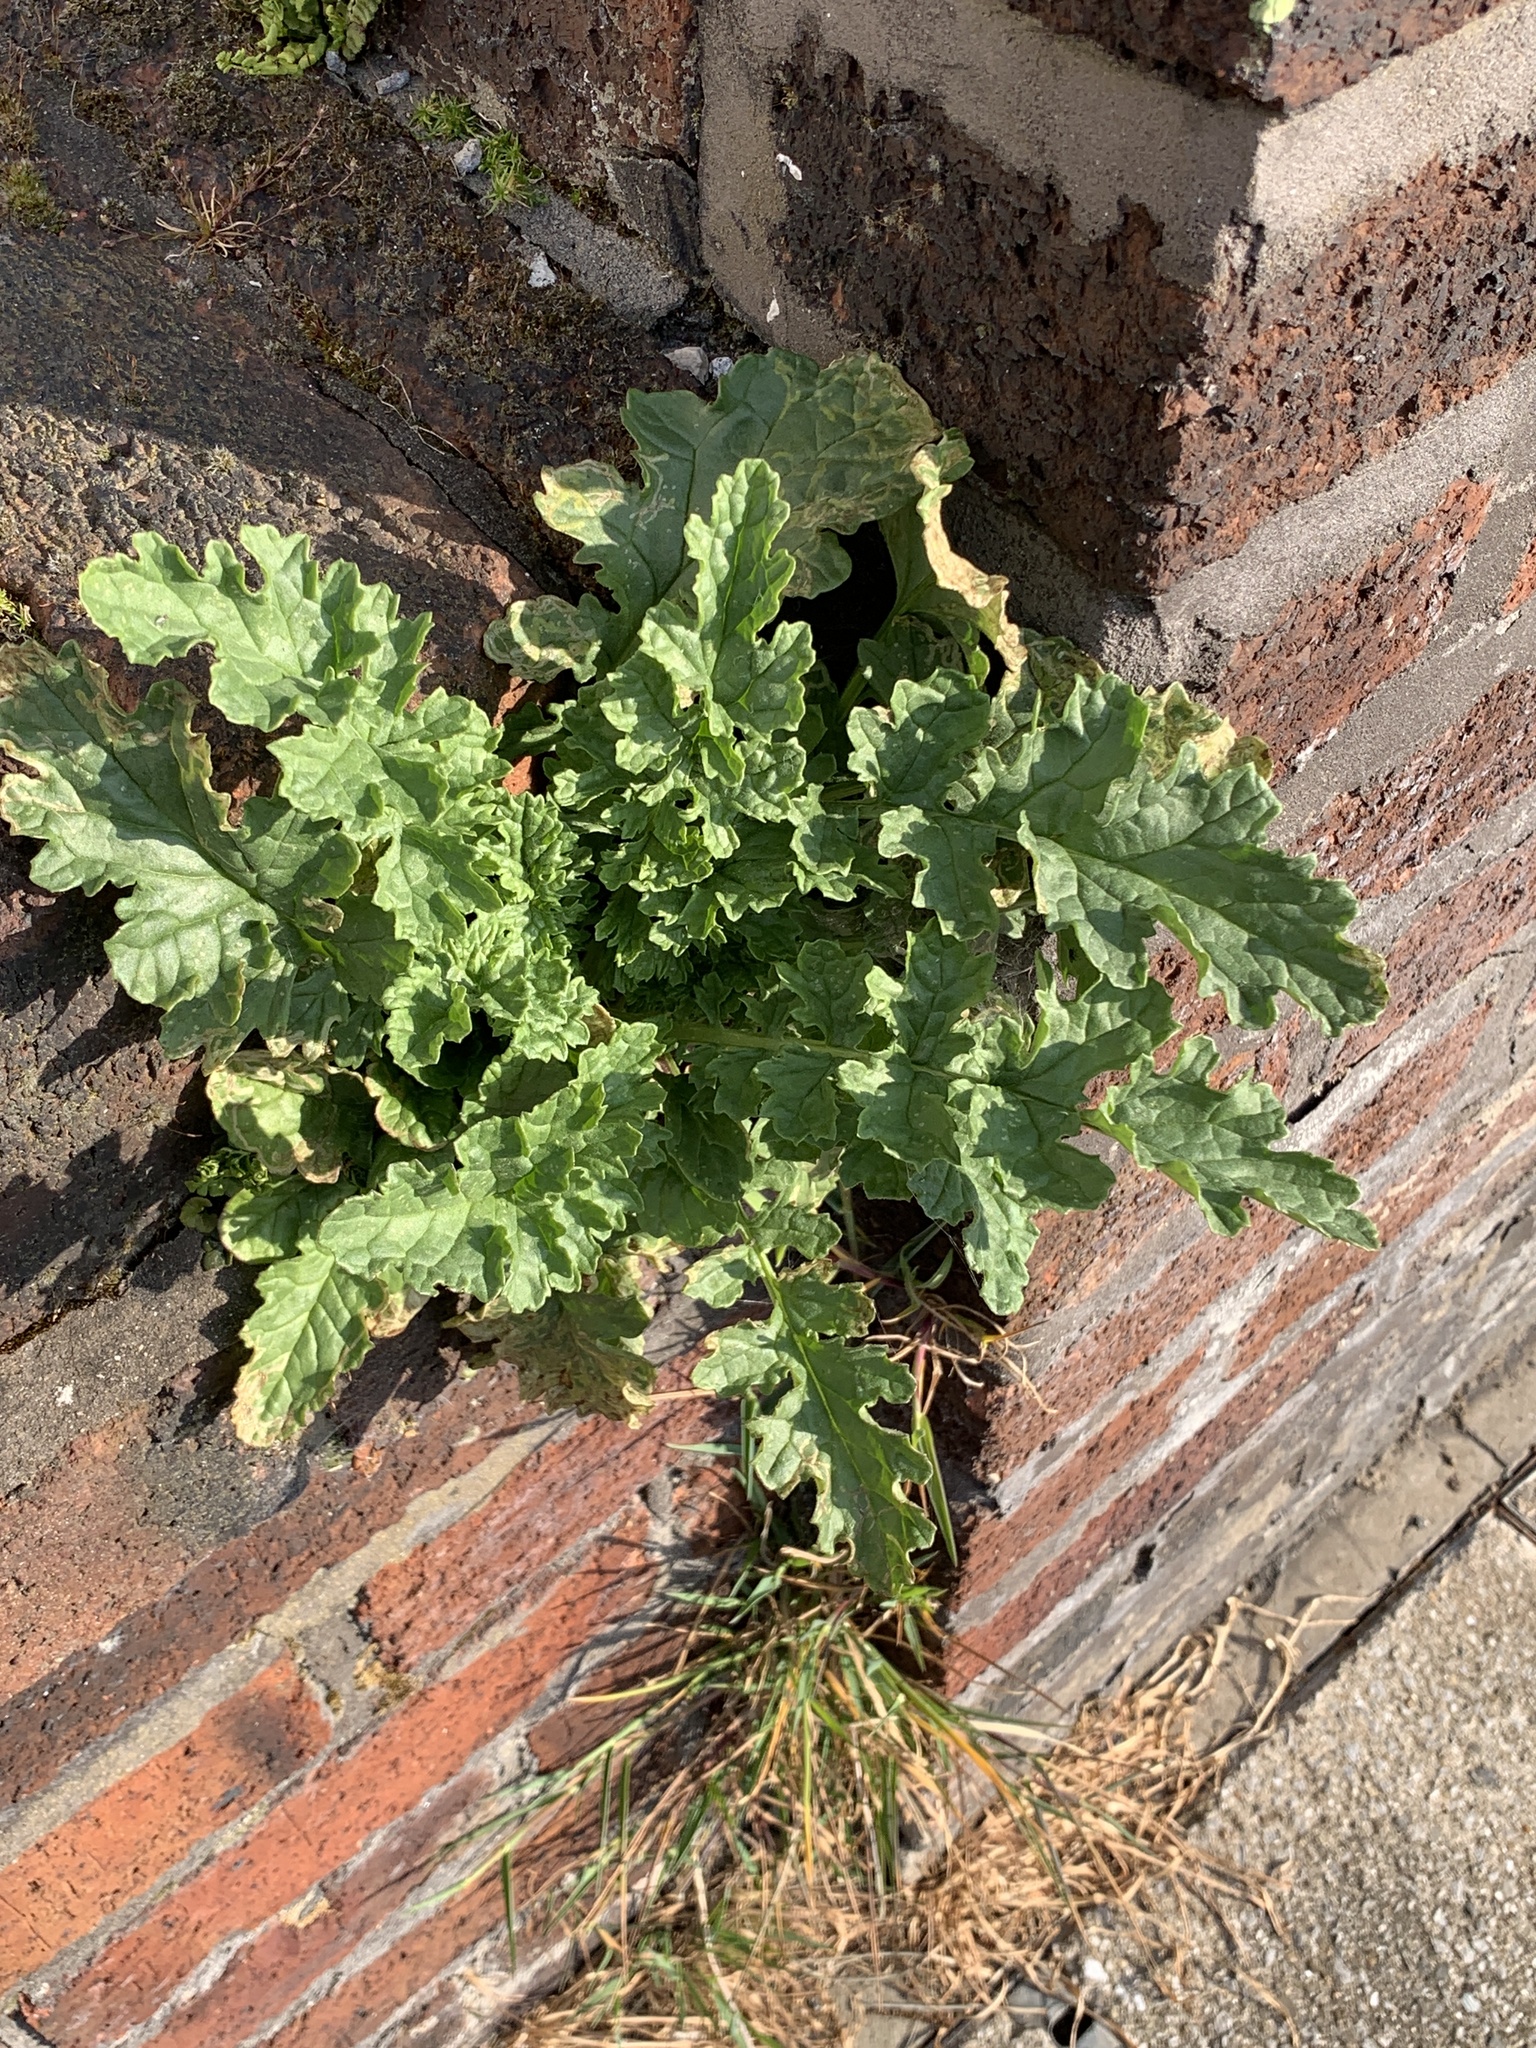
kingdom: Plantae
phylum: Tracheophyta
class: Magnoliopsida
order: Asterales
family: Asteraceae
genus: Jacobaea
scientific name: Jacobaea vulgaris
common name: Stinking willie
